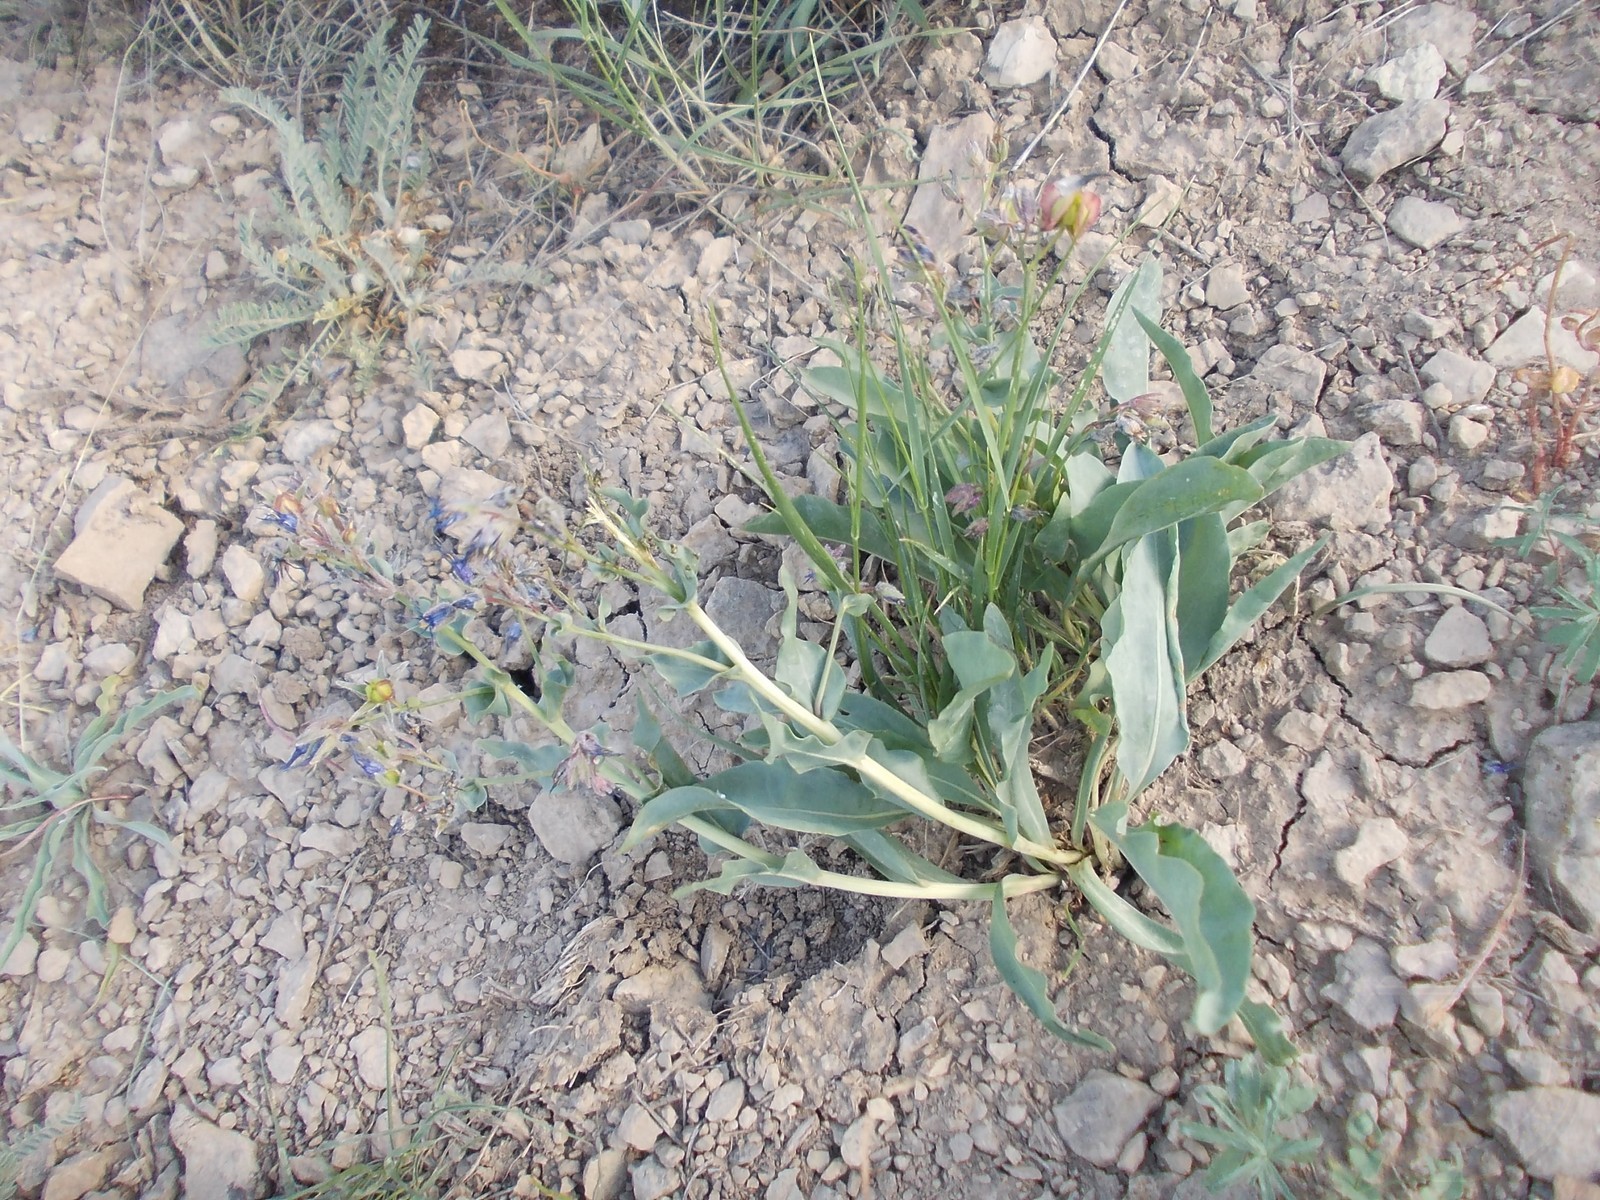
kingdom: Plantae
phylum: Tracheophyta
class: Magnoliopsida
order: Boraginales
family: Boraginaceae
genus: Rindera
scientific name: Rindera tetraspis
